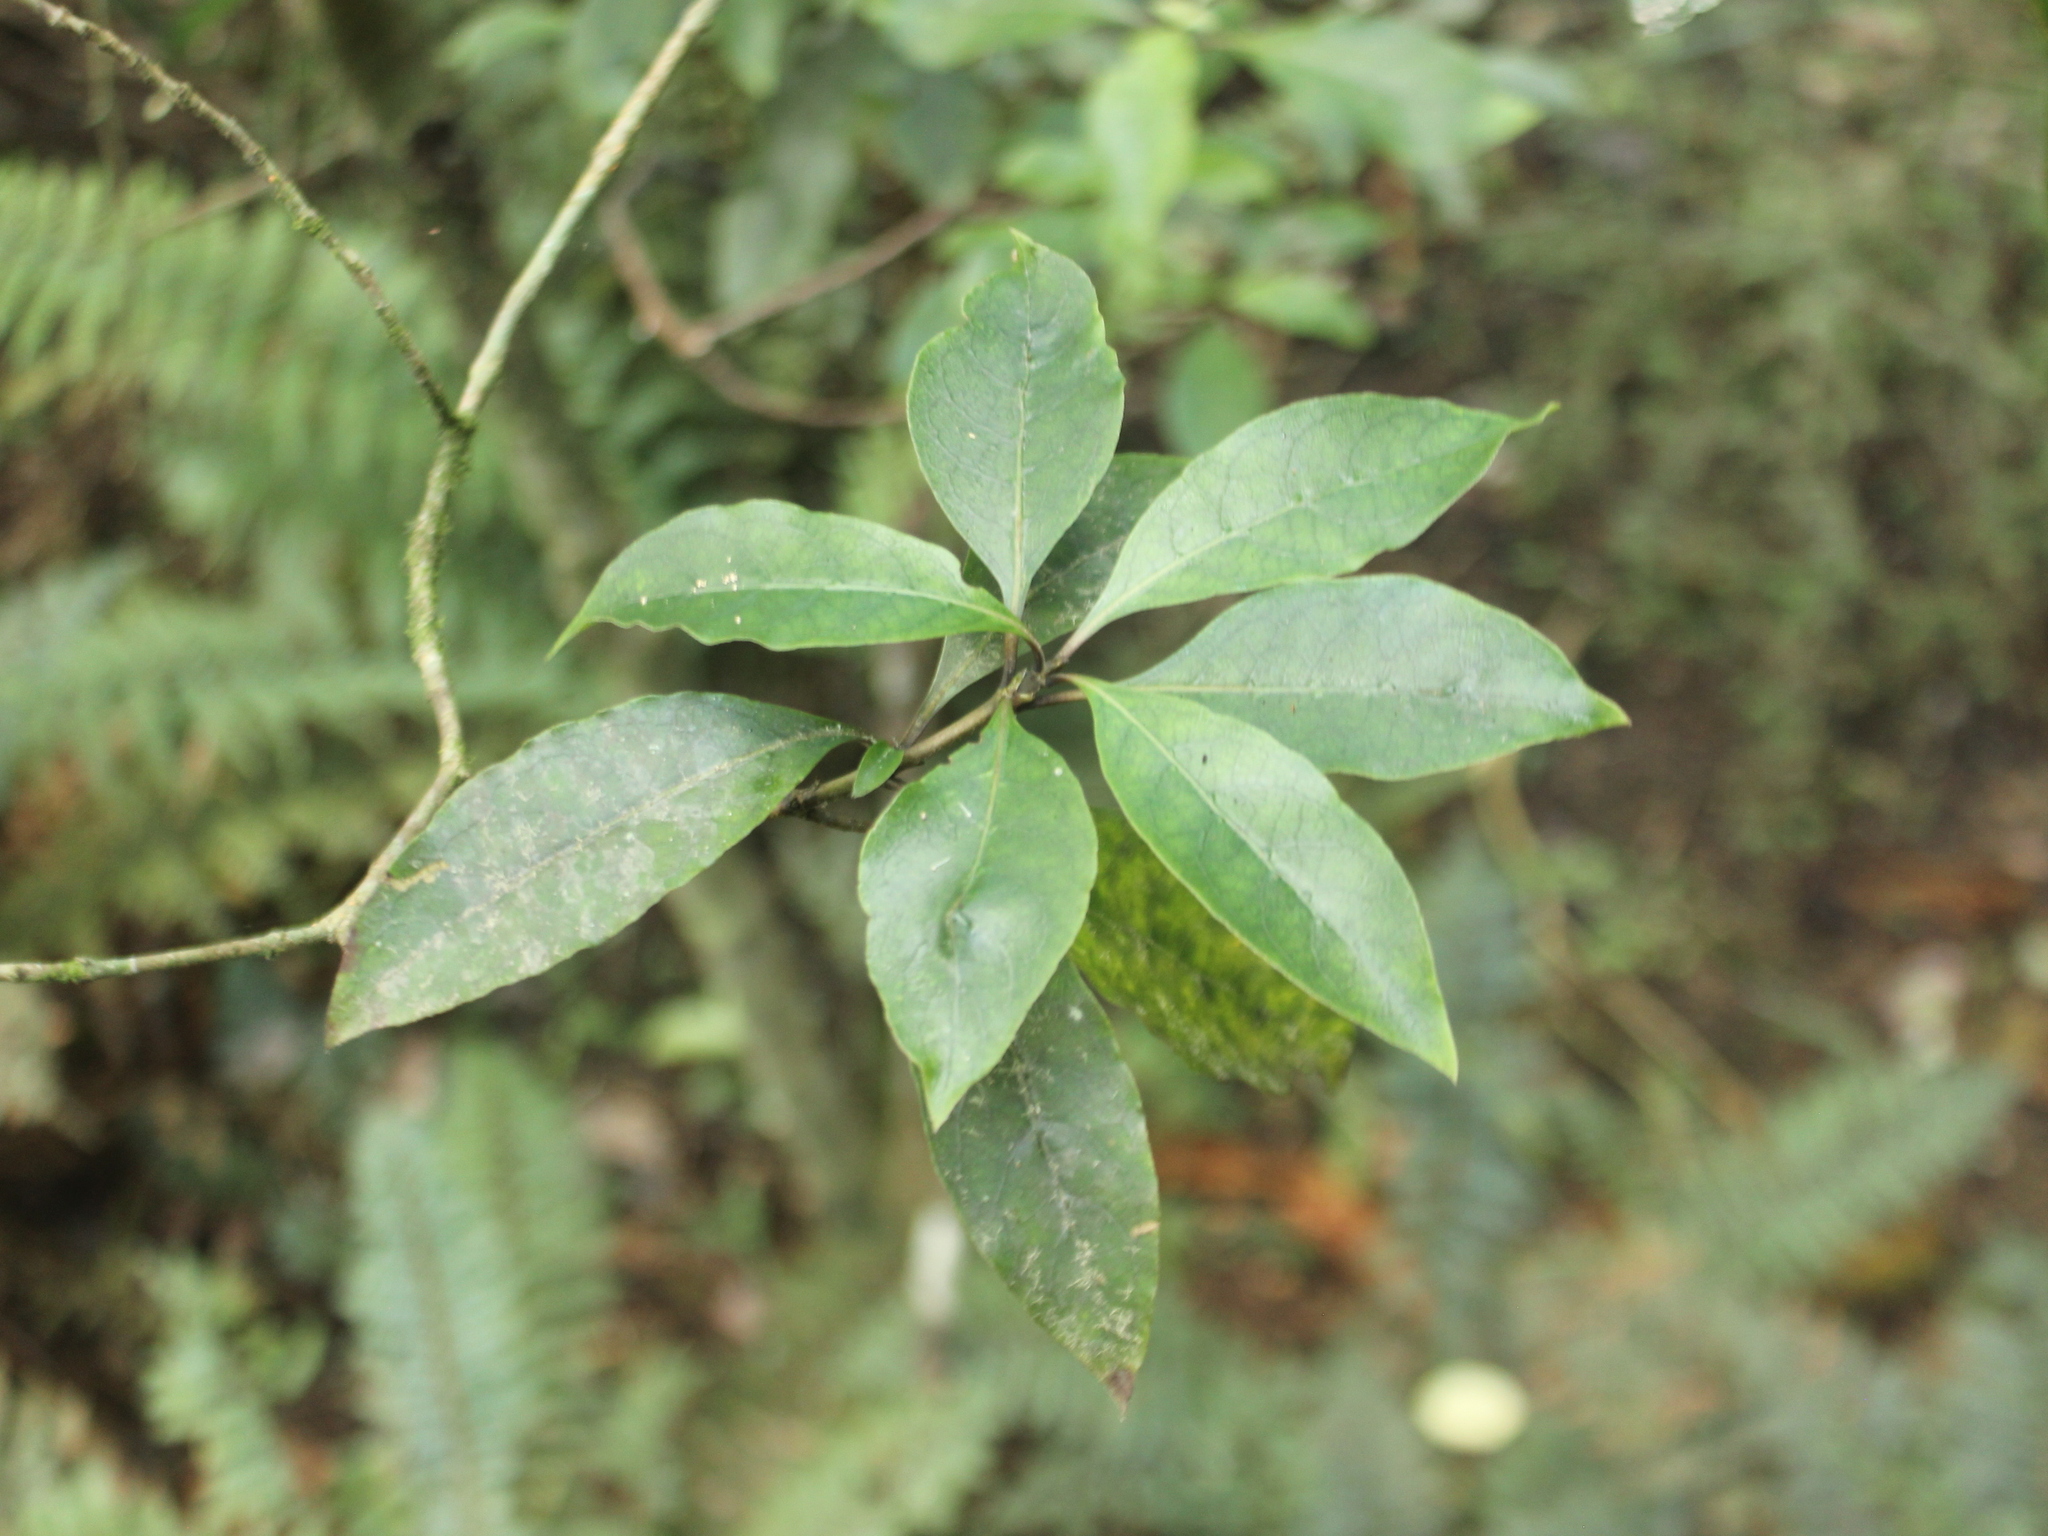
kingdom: Plantae
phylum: Tracheophyta
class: Magnoliopsida
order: Gentianales
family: Rubiaceae
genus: Coprosma
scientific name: Coprosma tenuifolia
